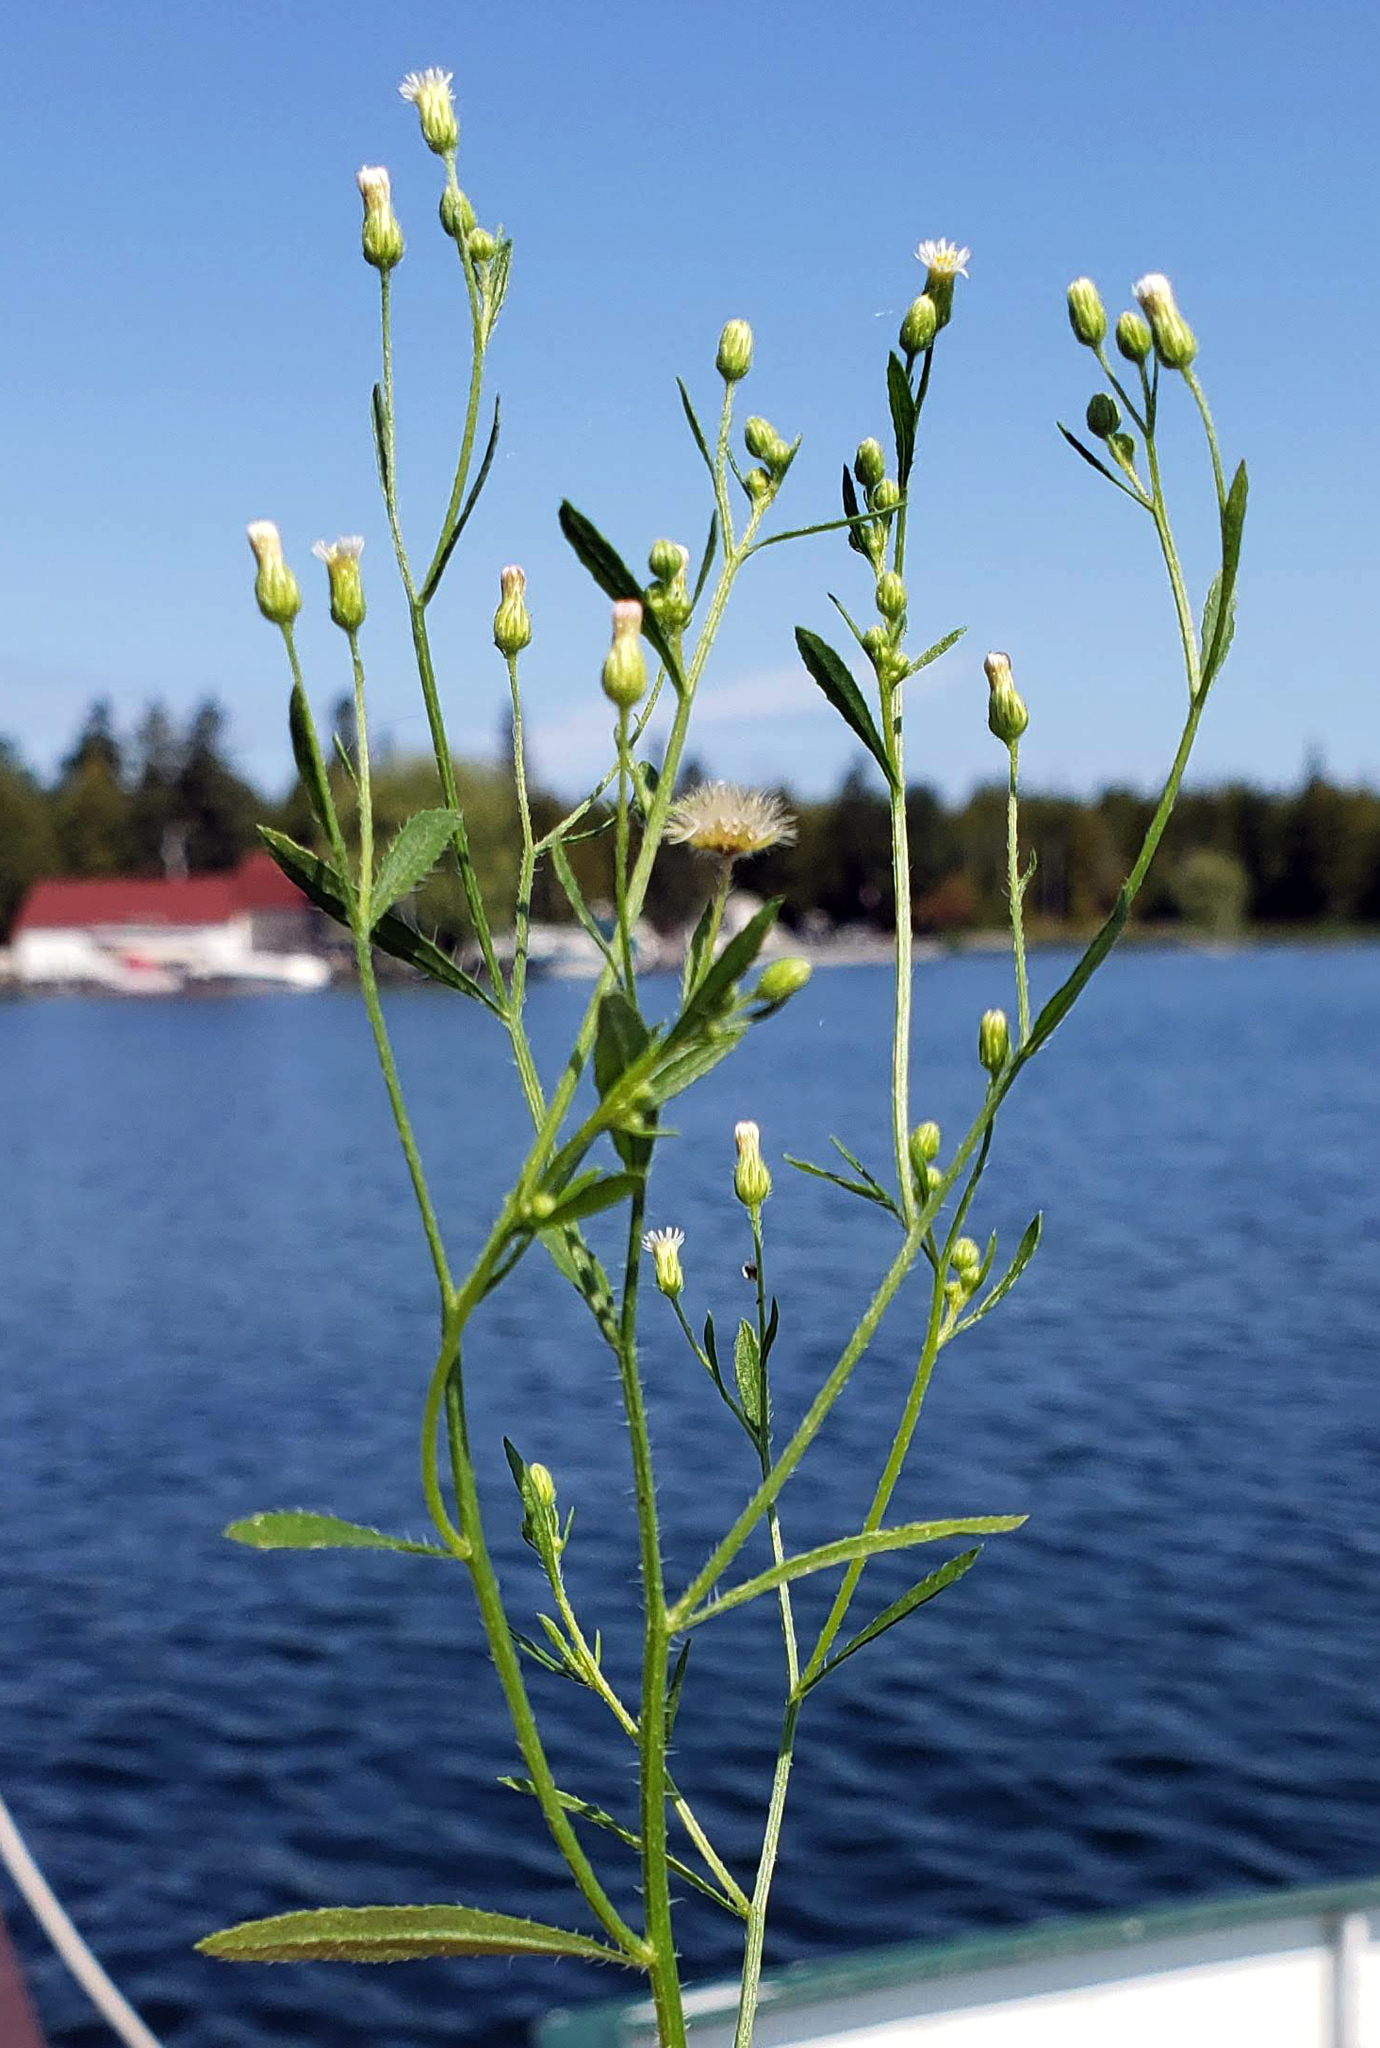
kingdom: Plantae
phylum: Tracheophyta
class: Magnoliopsida
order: Asterales
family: Asteraceae
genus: Erigeron
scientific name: Erigeron canadensis
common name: Canadian fleabane
